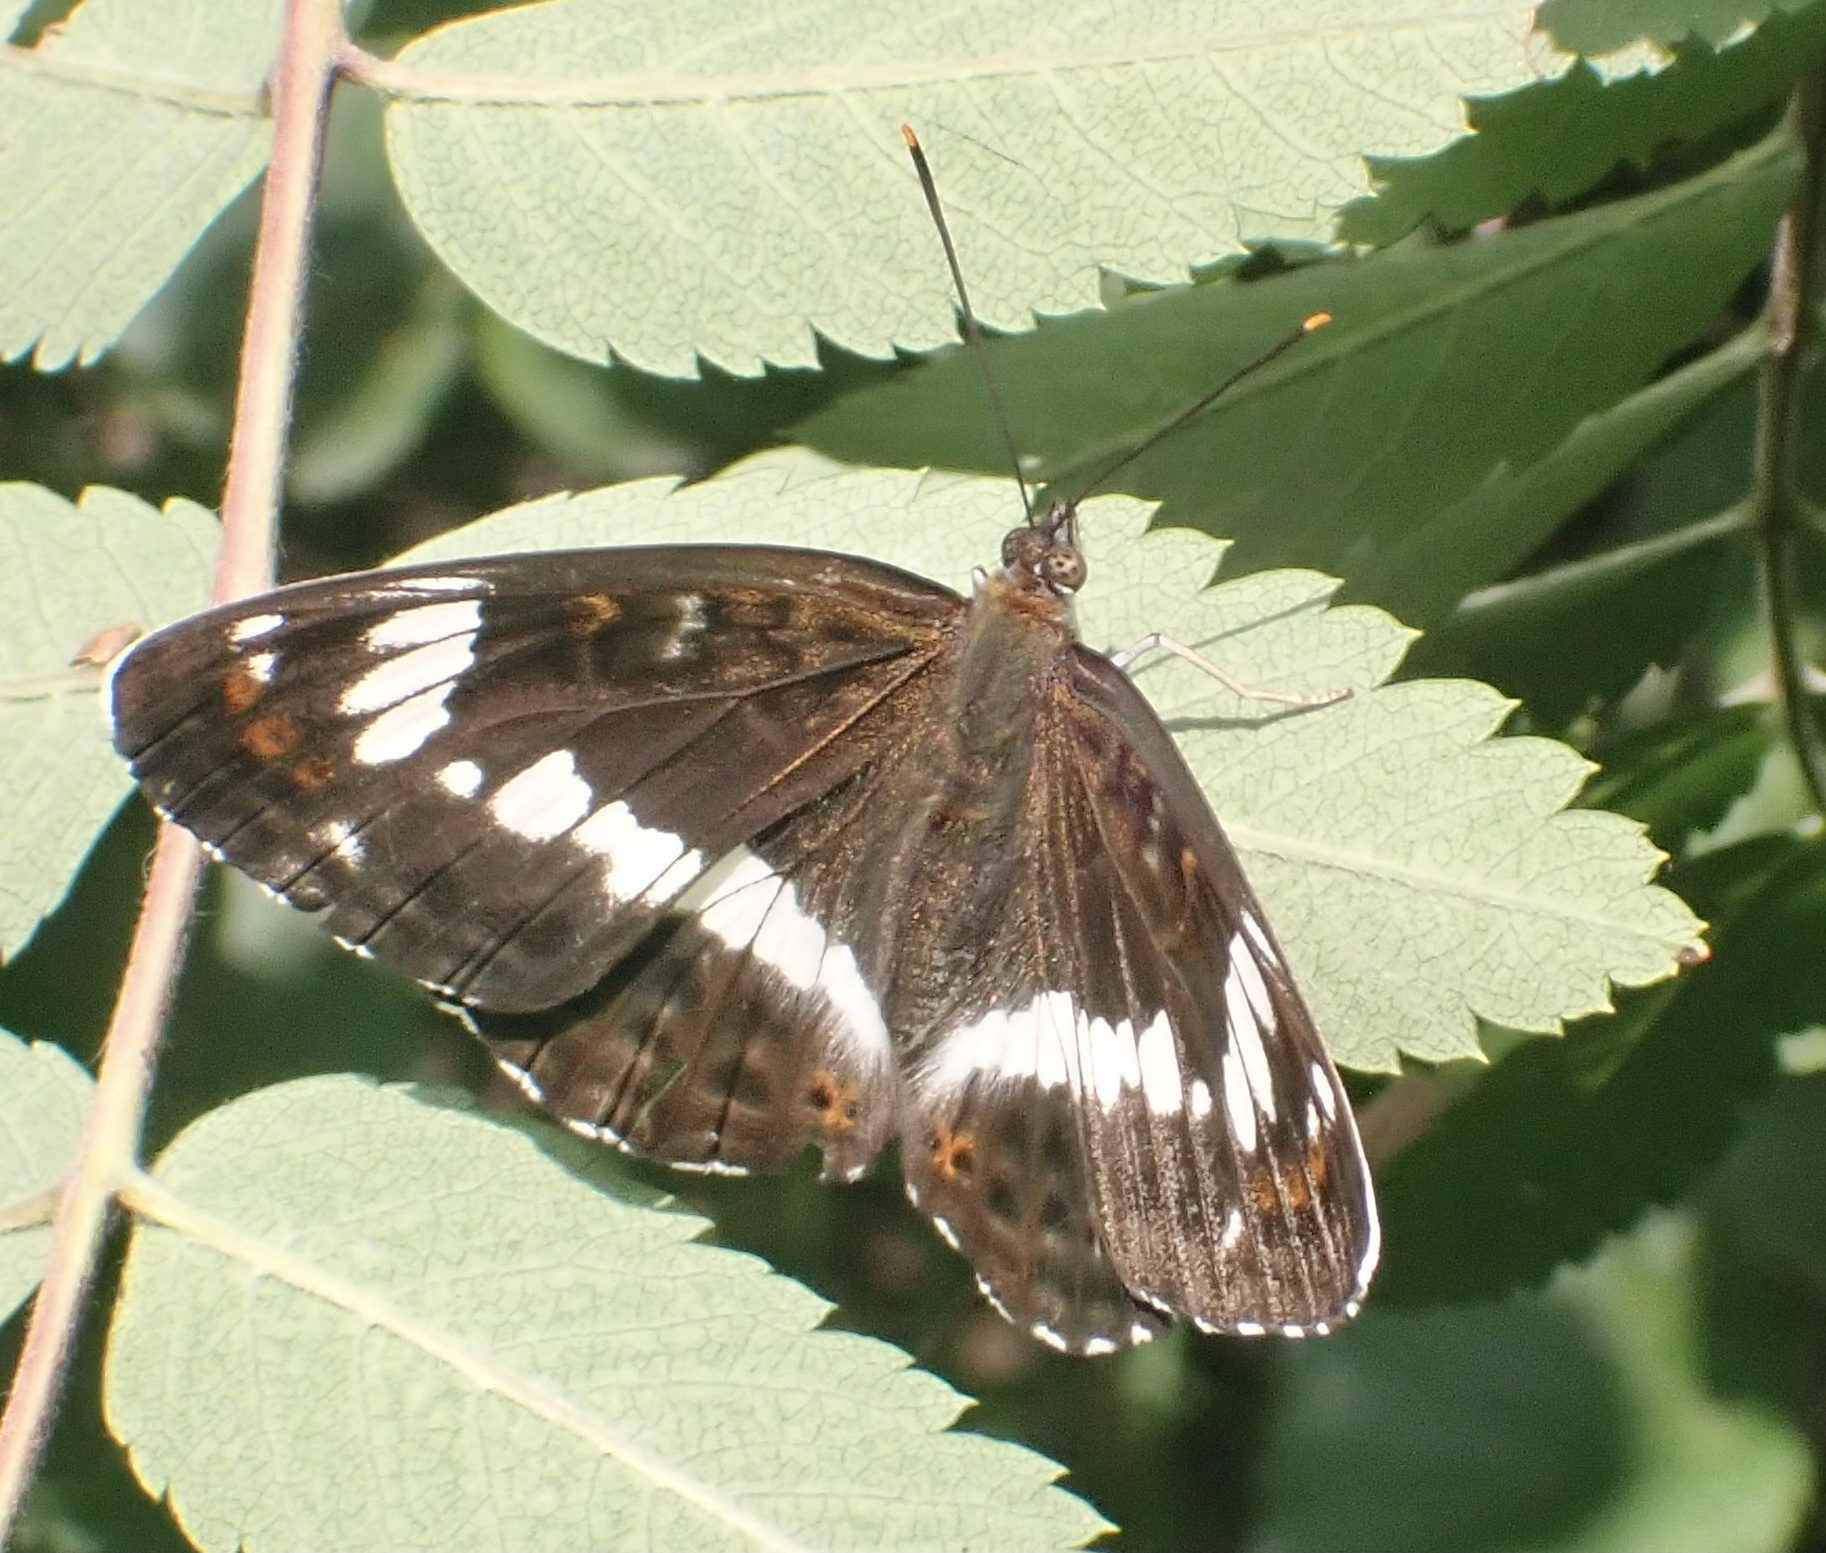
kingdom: Animalia
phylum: Arthropoda
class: Insecta
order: Lepidoptera
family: Nymphalidae
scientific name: Nymphalidae
